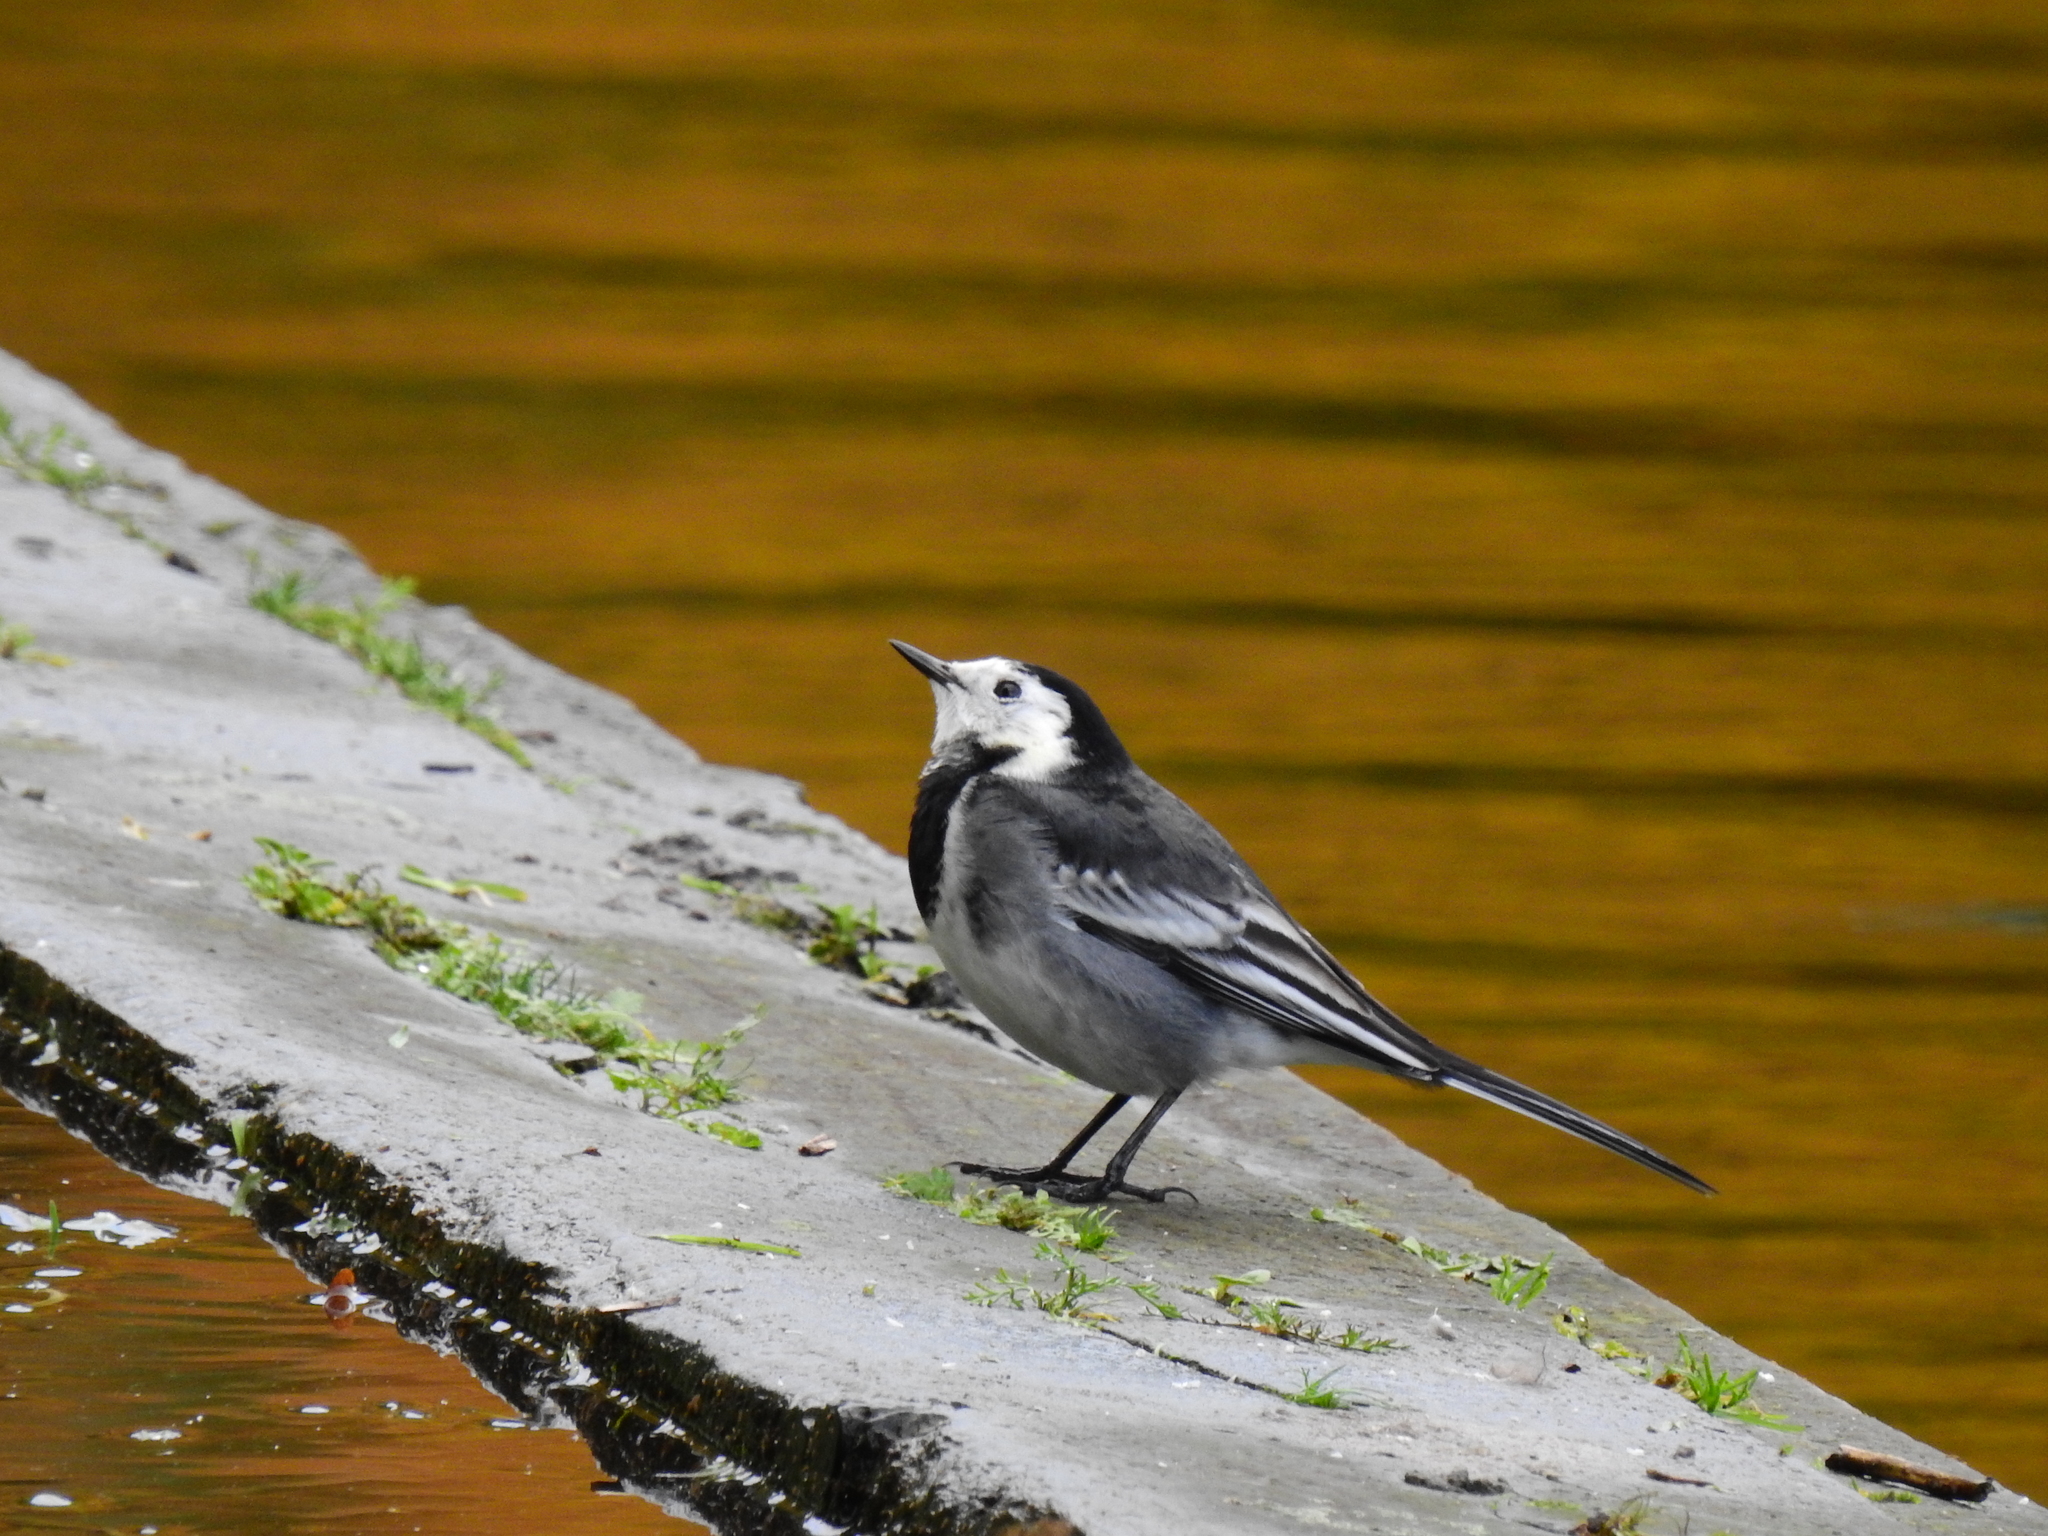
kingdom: Animalia
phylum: Chordata
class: Aves
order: Passeriformes
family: Motacillidae
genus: Motacilla
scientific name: Motacilla alba
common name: White wagtail
